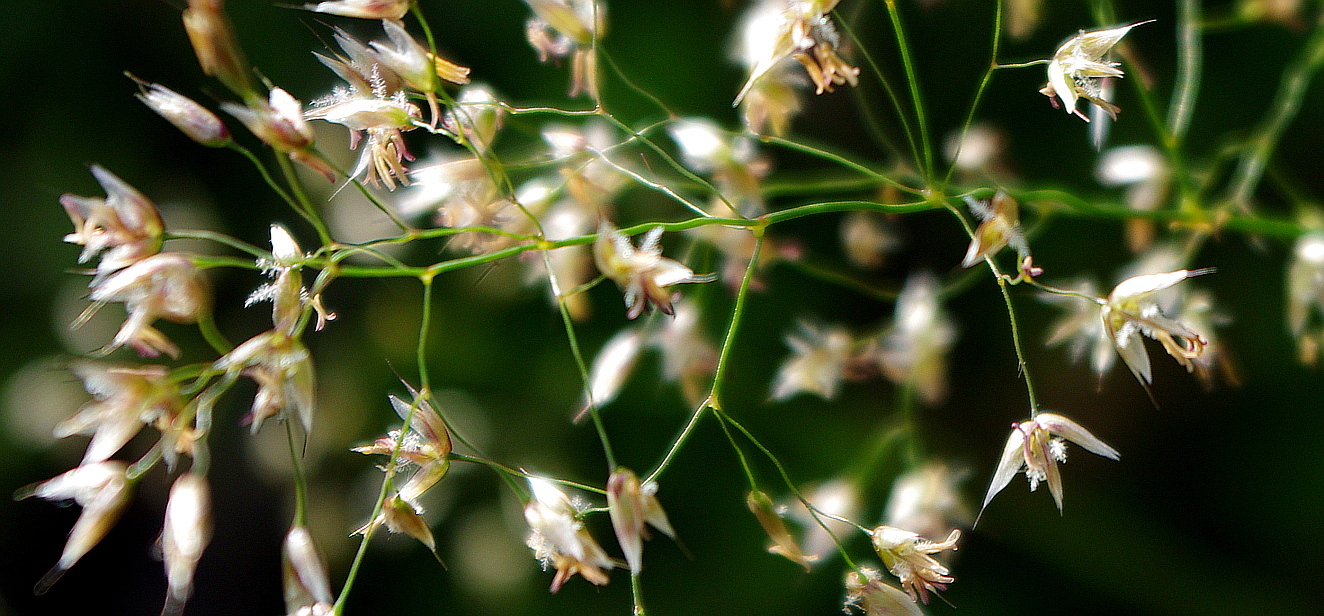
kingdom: Plantae
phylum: Tracheophyta
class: Liliopsida
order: Poales
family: Poaceae
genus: Avenella
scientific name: Avenella flexuosa
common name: Wavy hairgrass
